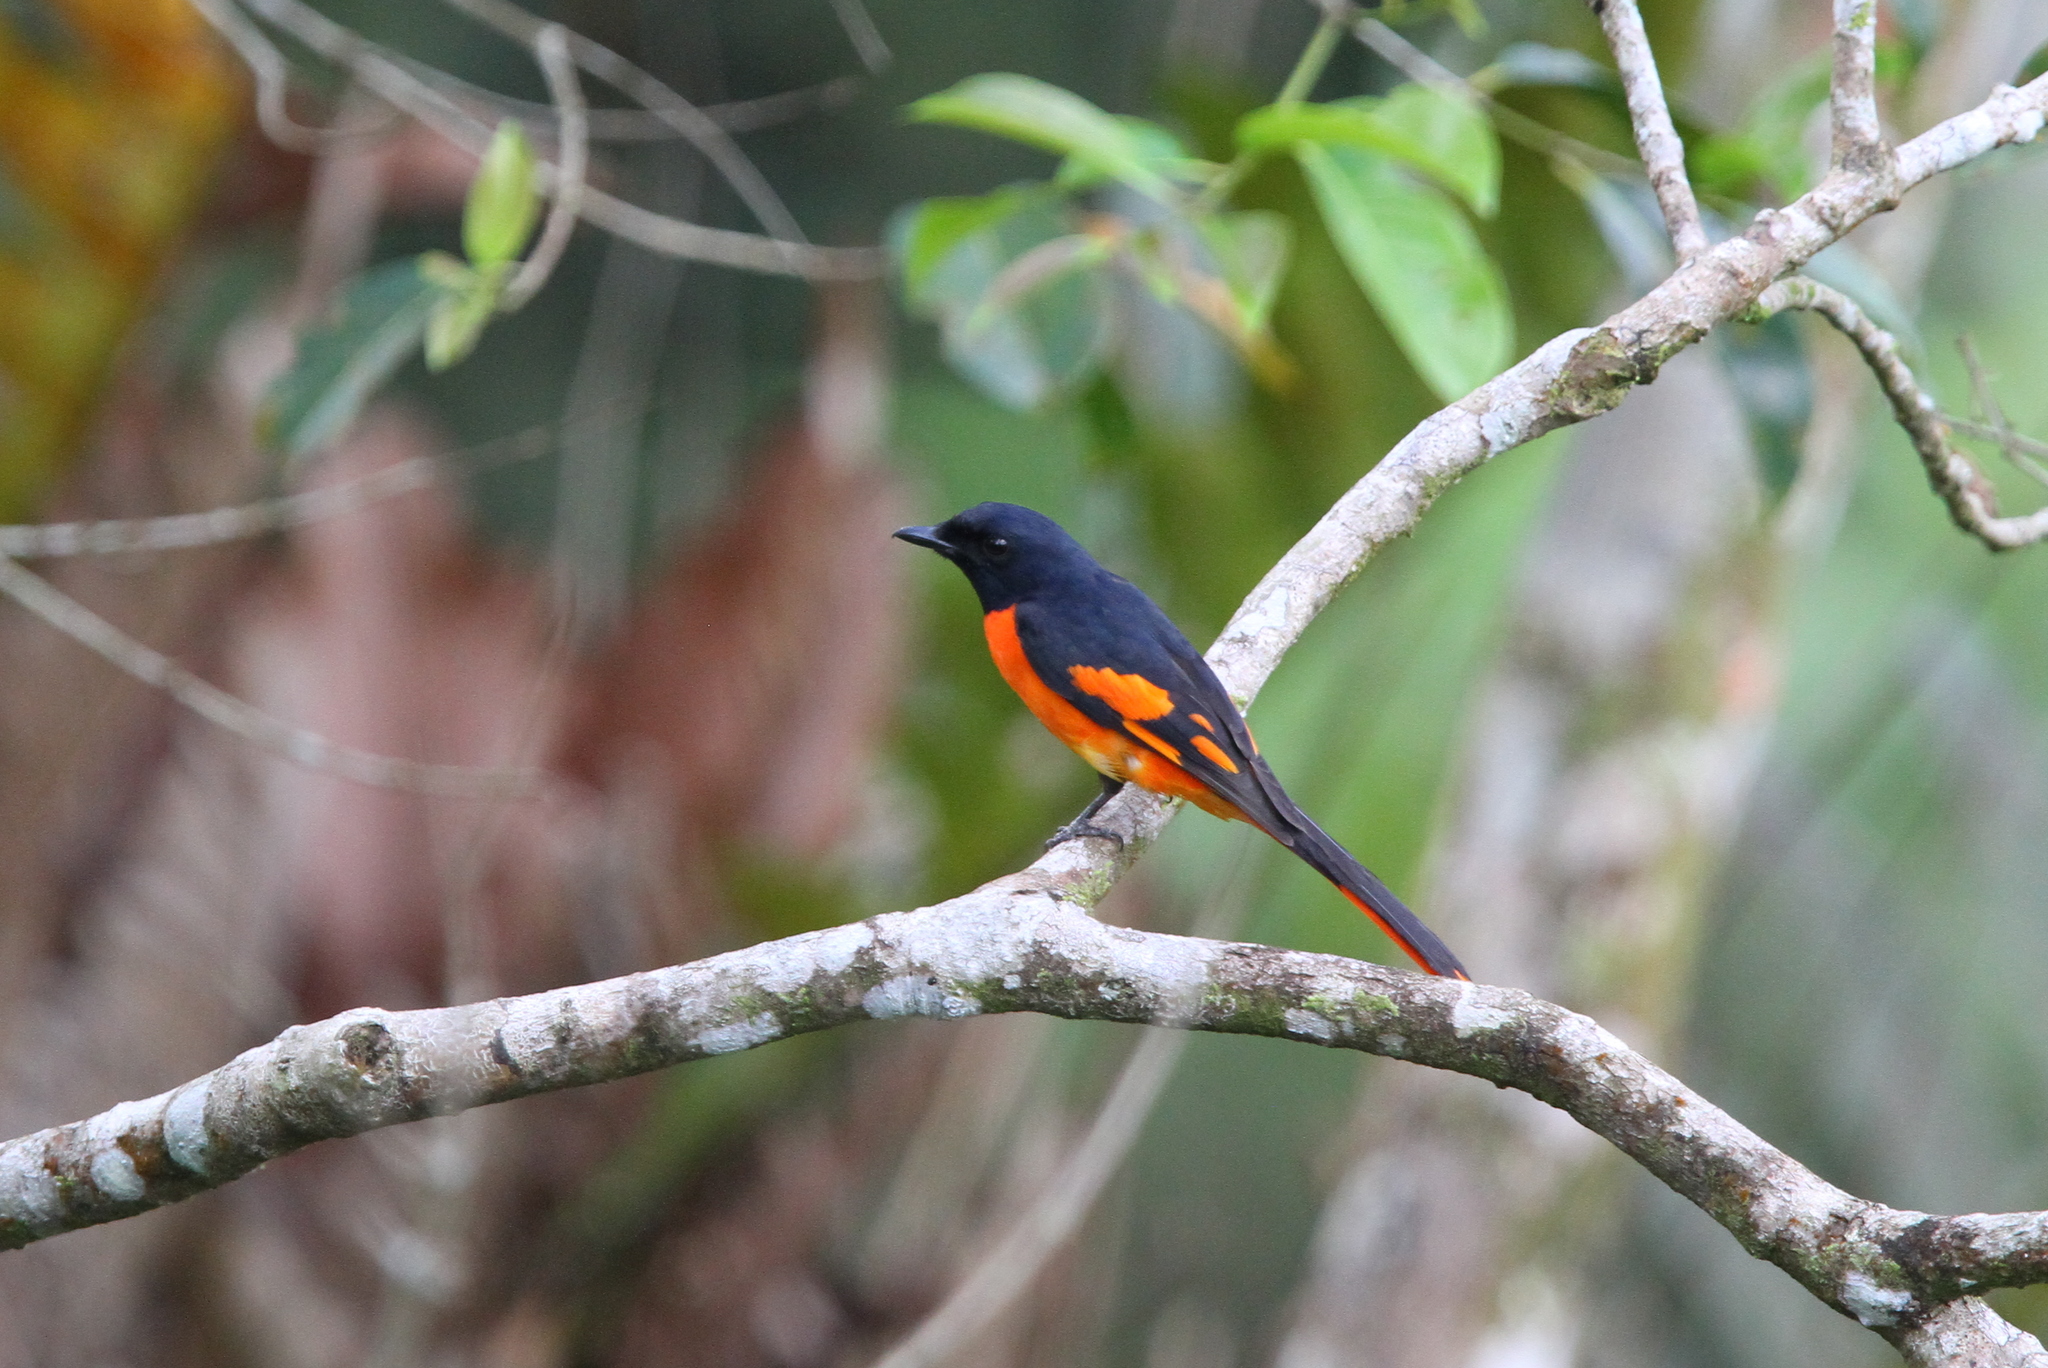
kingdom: Animalia
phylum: Chordata
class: Aves
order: Passeriformes
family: Campephagidae
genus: Pericrocotus
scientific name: Pericrocotus flammeus
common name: Orange minivet
